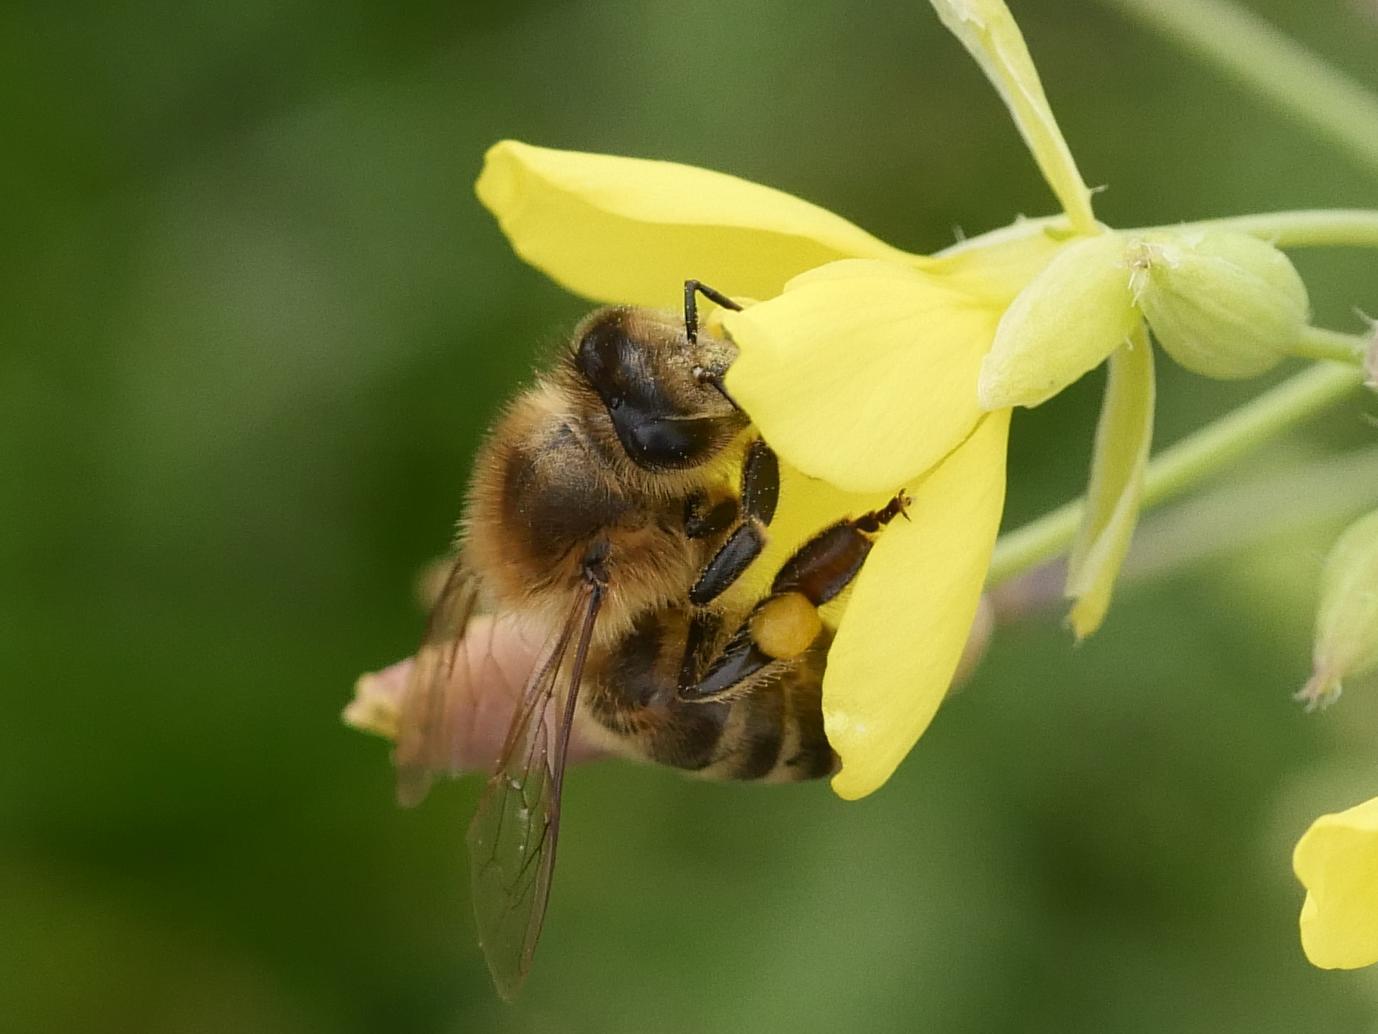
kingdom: Animalia
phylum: Arthropoda
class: Insecta
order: Hymenoptera
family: Apidae
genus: Apis
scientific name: Apis mellifera
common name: Honey bee
